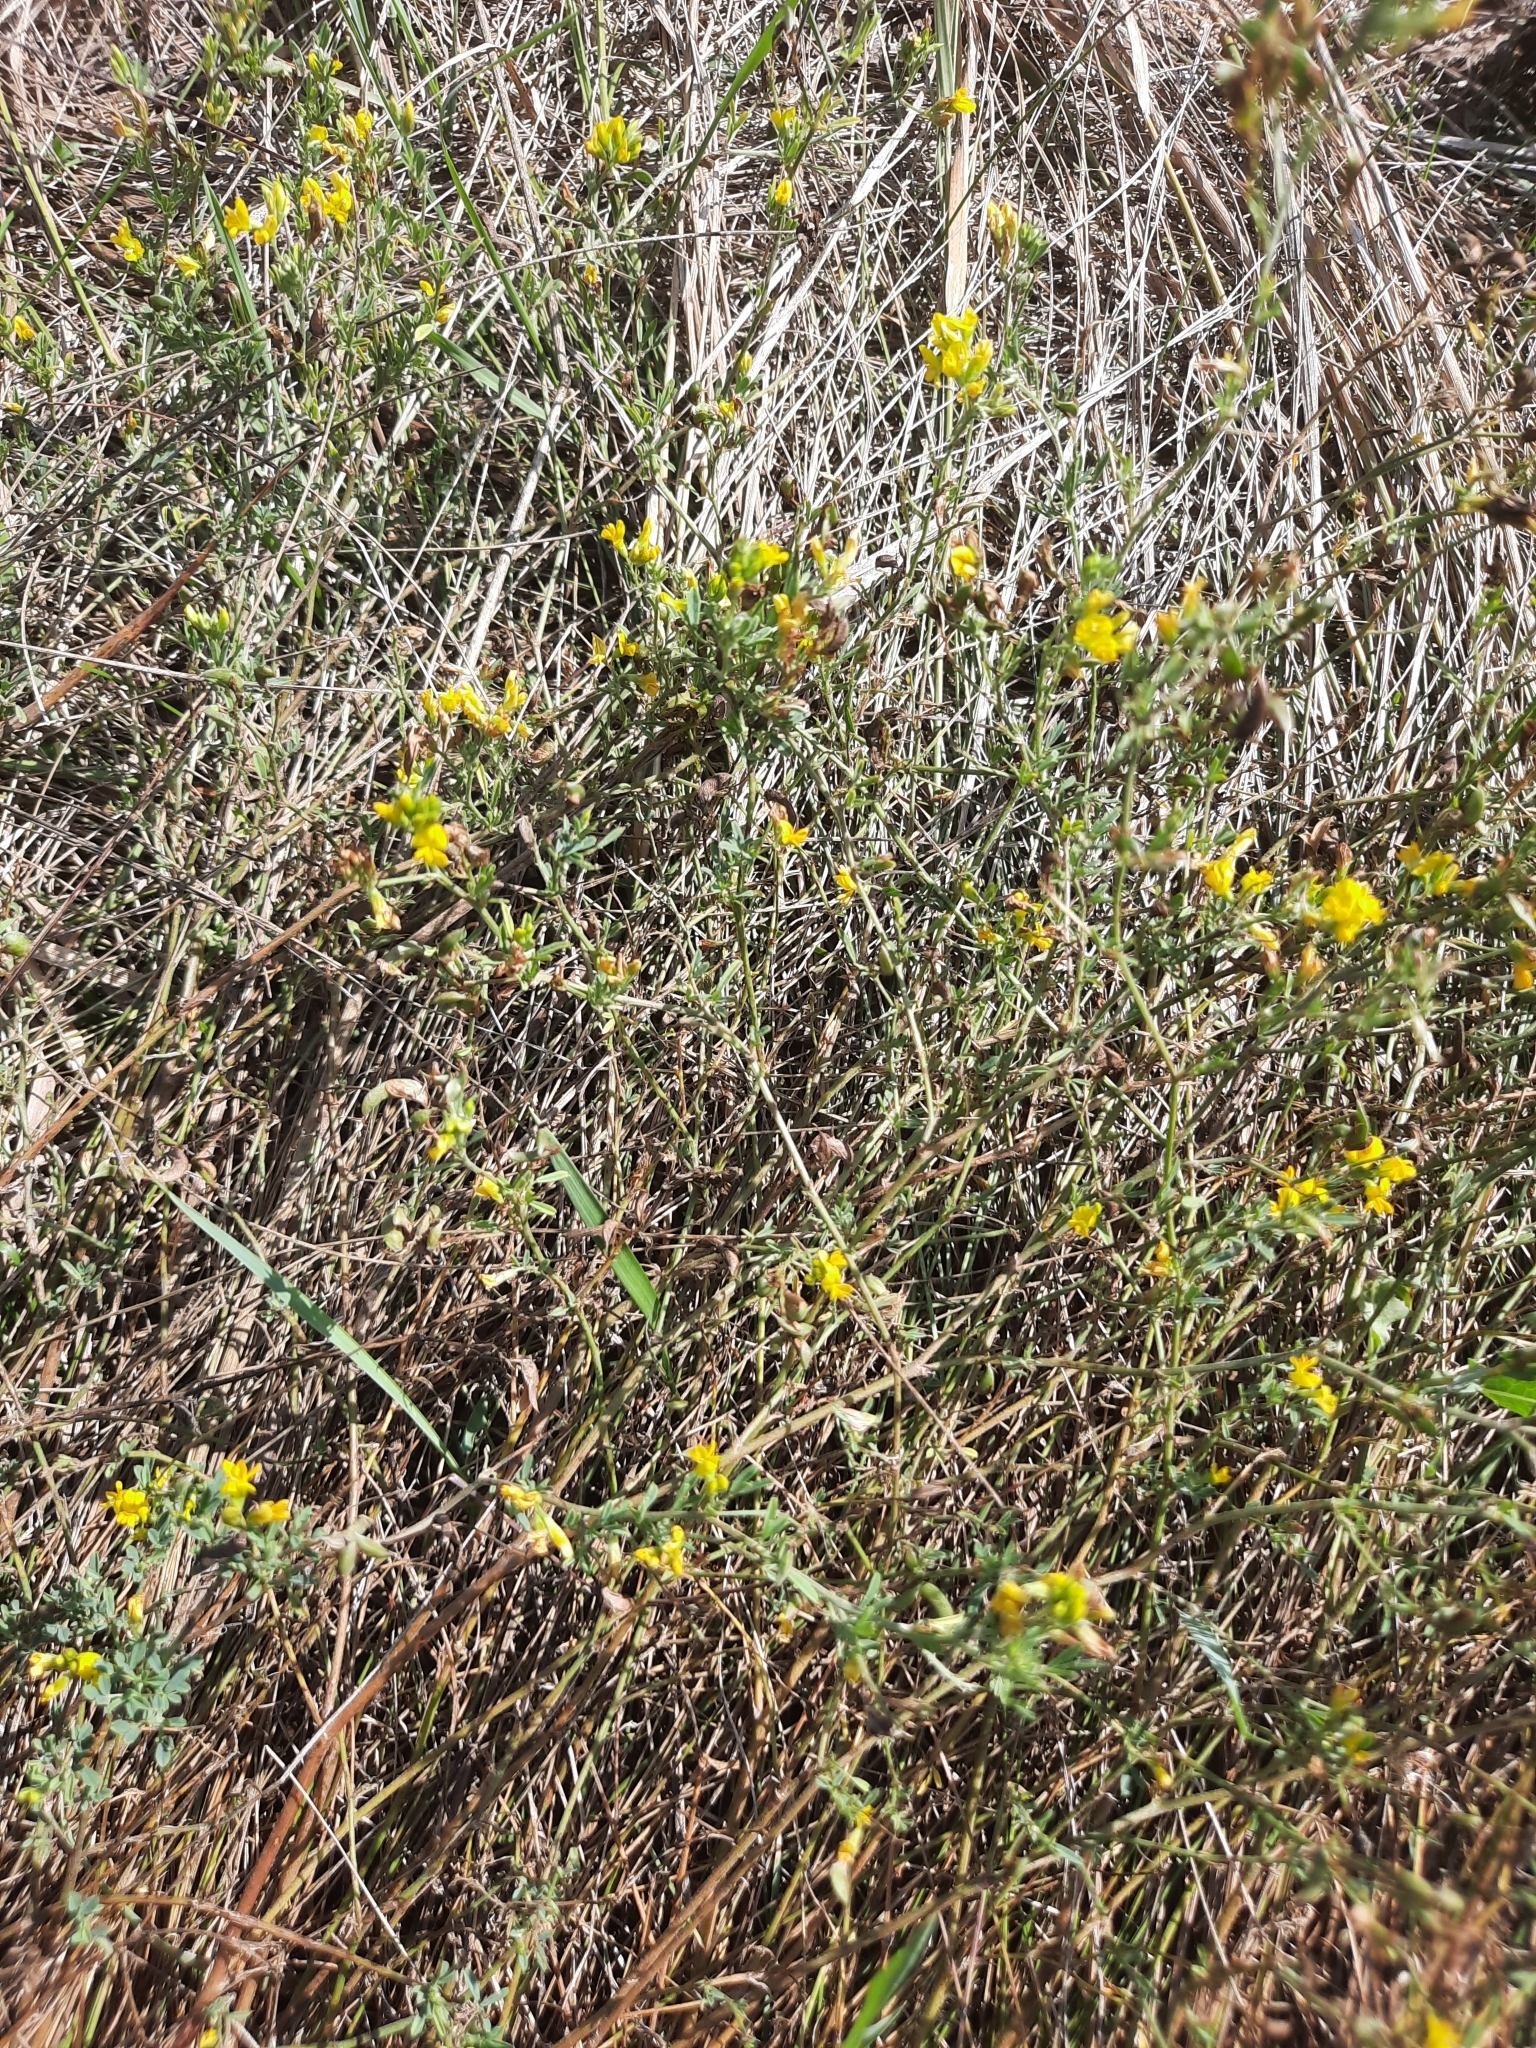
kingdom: Plantae
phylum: Tracheophyta
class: Magnoliopsida
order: Fabales
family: Fabaceae
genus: Medicago
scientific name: Medicago falcata
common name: Sickle medick
